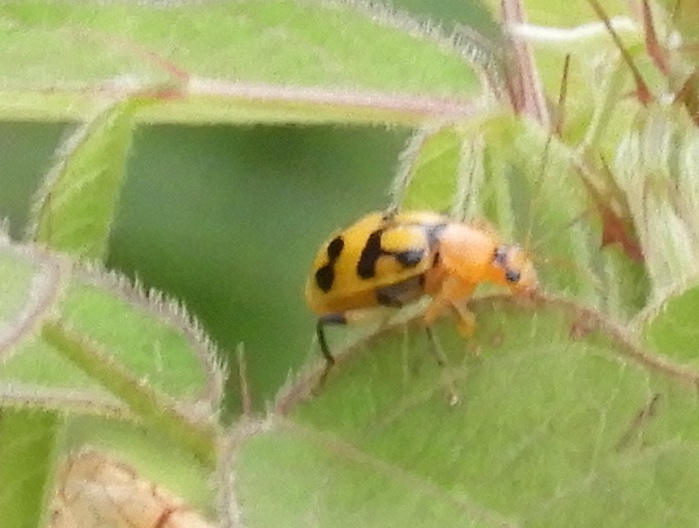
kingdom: Animalia
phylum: Arthropoda
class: Insecta
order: Coleoptera
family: Chrysomelidae
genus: Cerotoma
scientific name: Cerotoma
